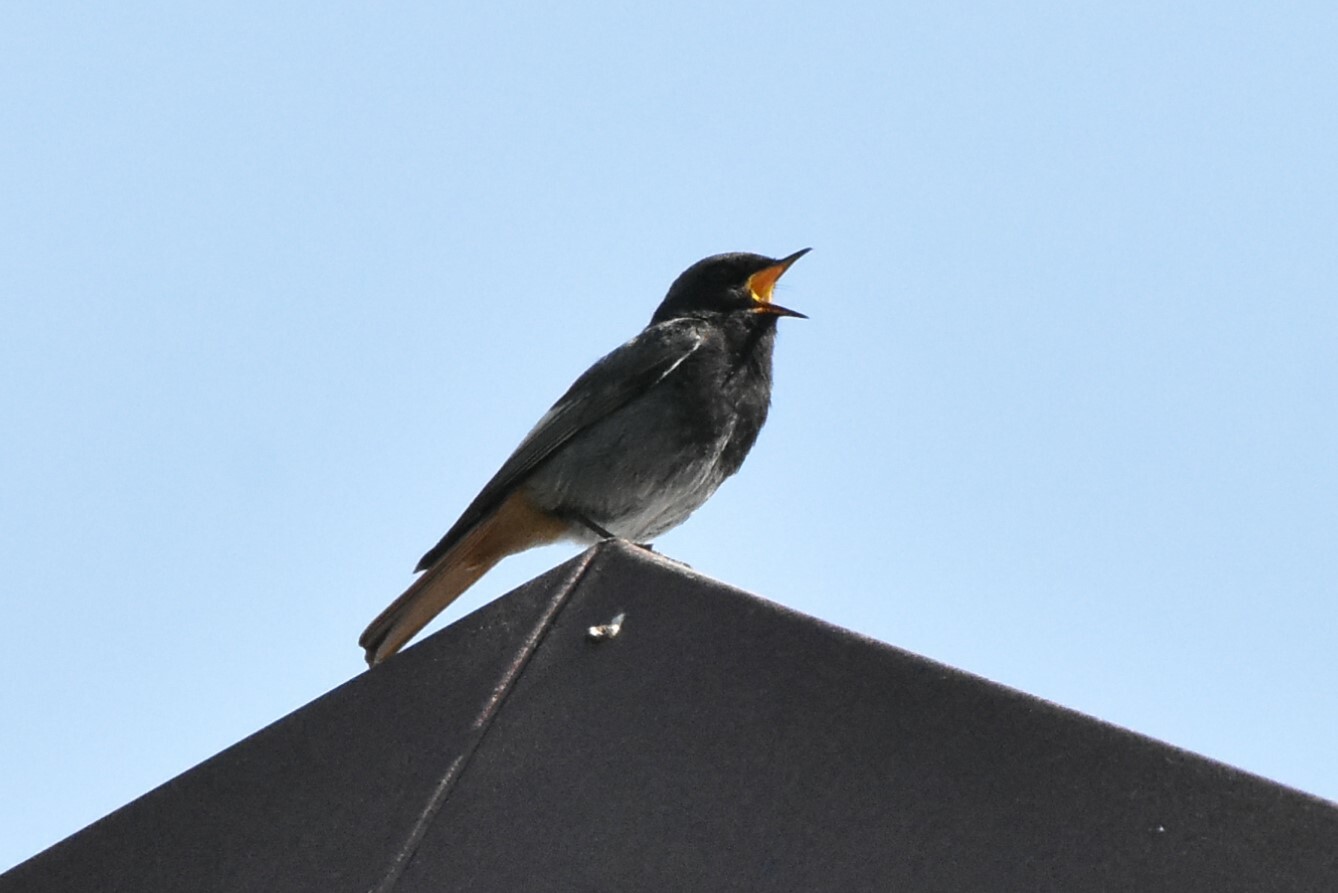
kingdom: Animalia
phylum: Chordata
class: Aves
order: Passeriformes
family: Muscicapidae
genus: Phoenicurus
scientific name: Phoenicurus ochruros
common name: Black redstart
